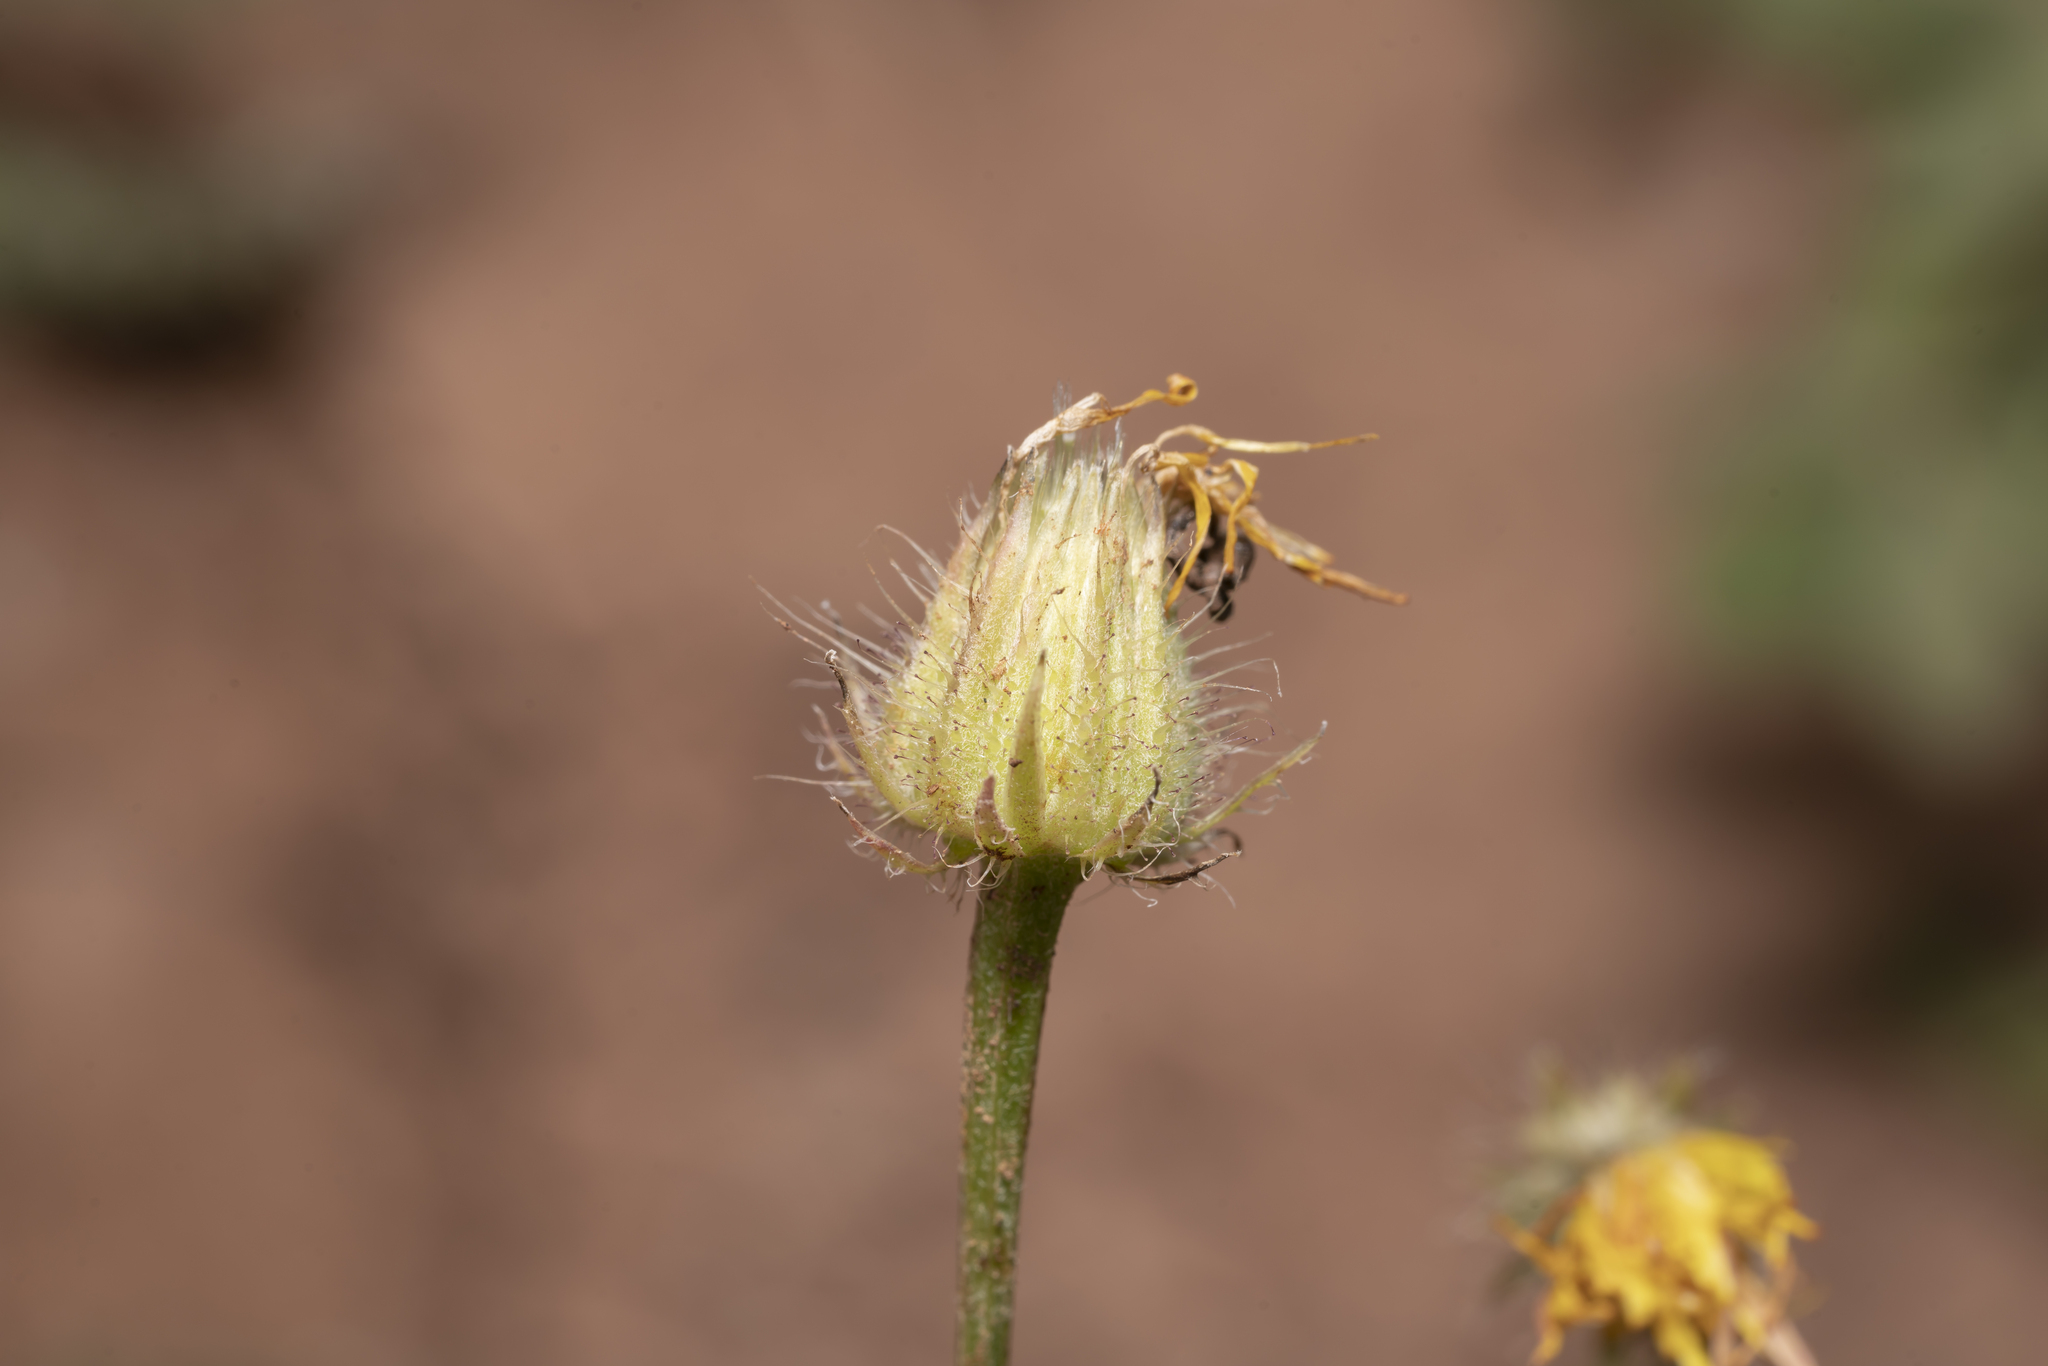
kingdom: Plantae
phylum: Tracheophyta
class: Magnoliopsida
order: Asterales
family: Asteraceae
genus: Crepis
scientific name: Crepis commutata
